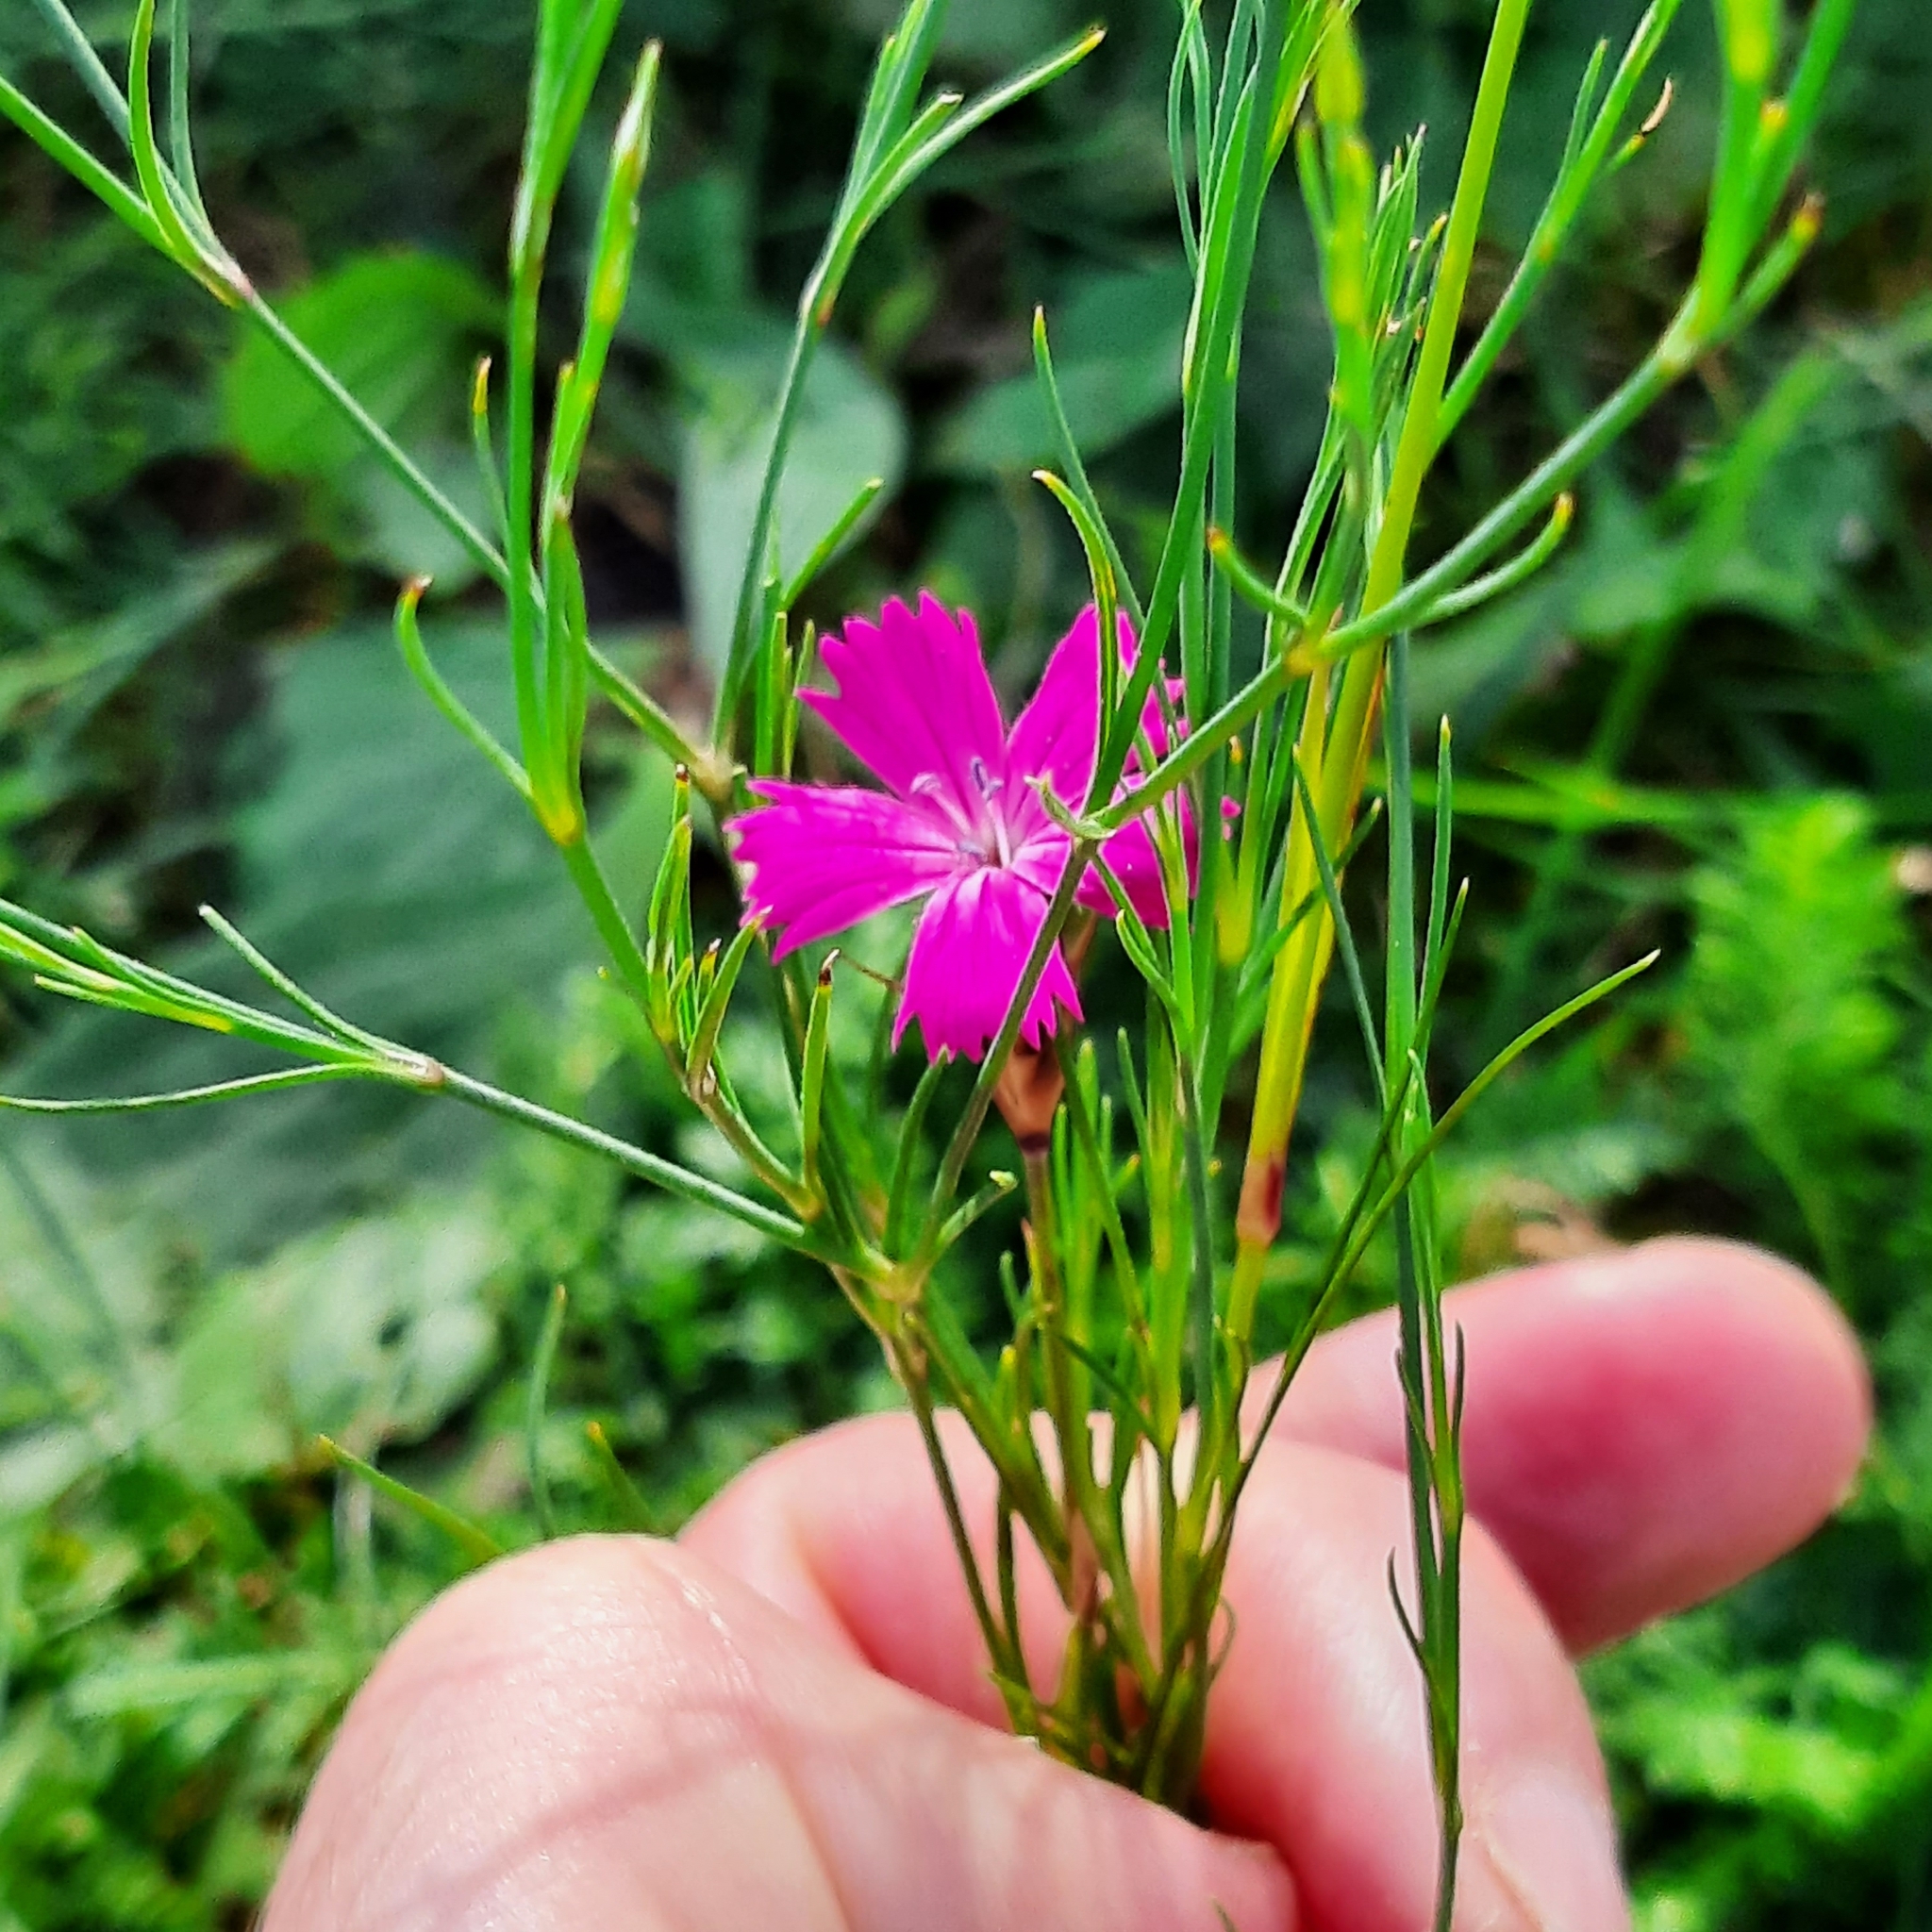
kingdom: Plantae
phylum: Tracheophyta
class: Magnoliopsida
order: Caryophyllales
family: Caryophyllaceae
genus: Dianthus
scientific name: Dianthus carthusianorum
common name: Carthusian pink
